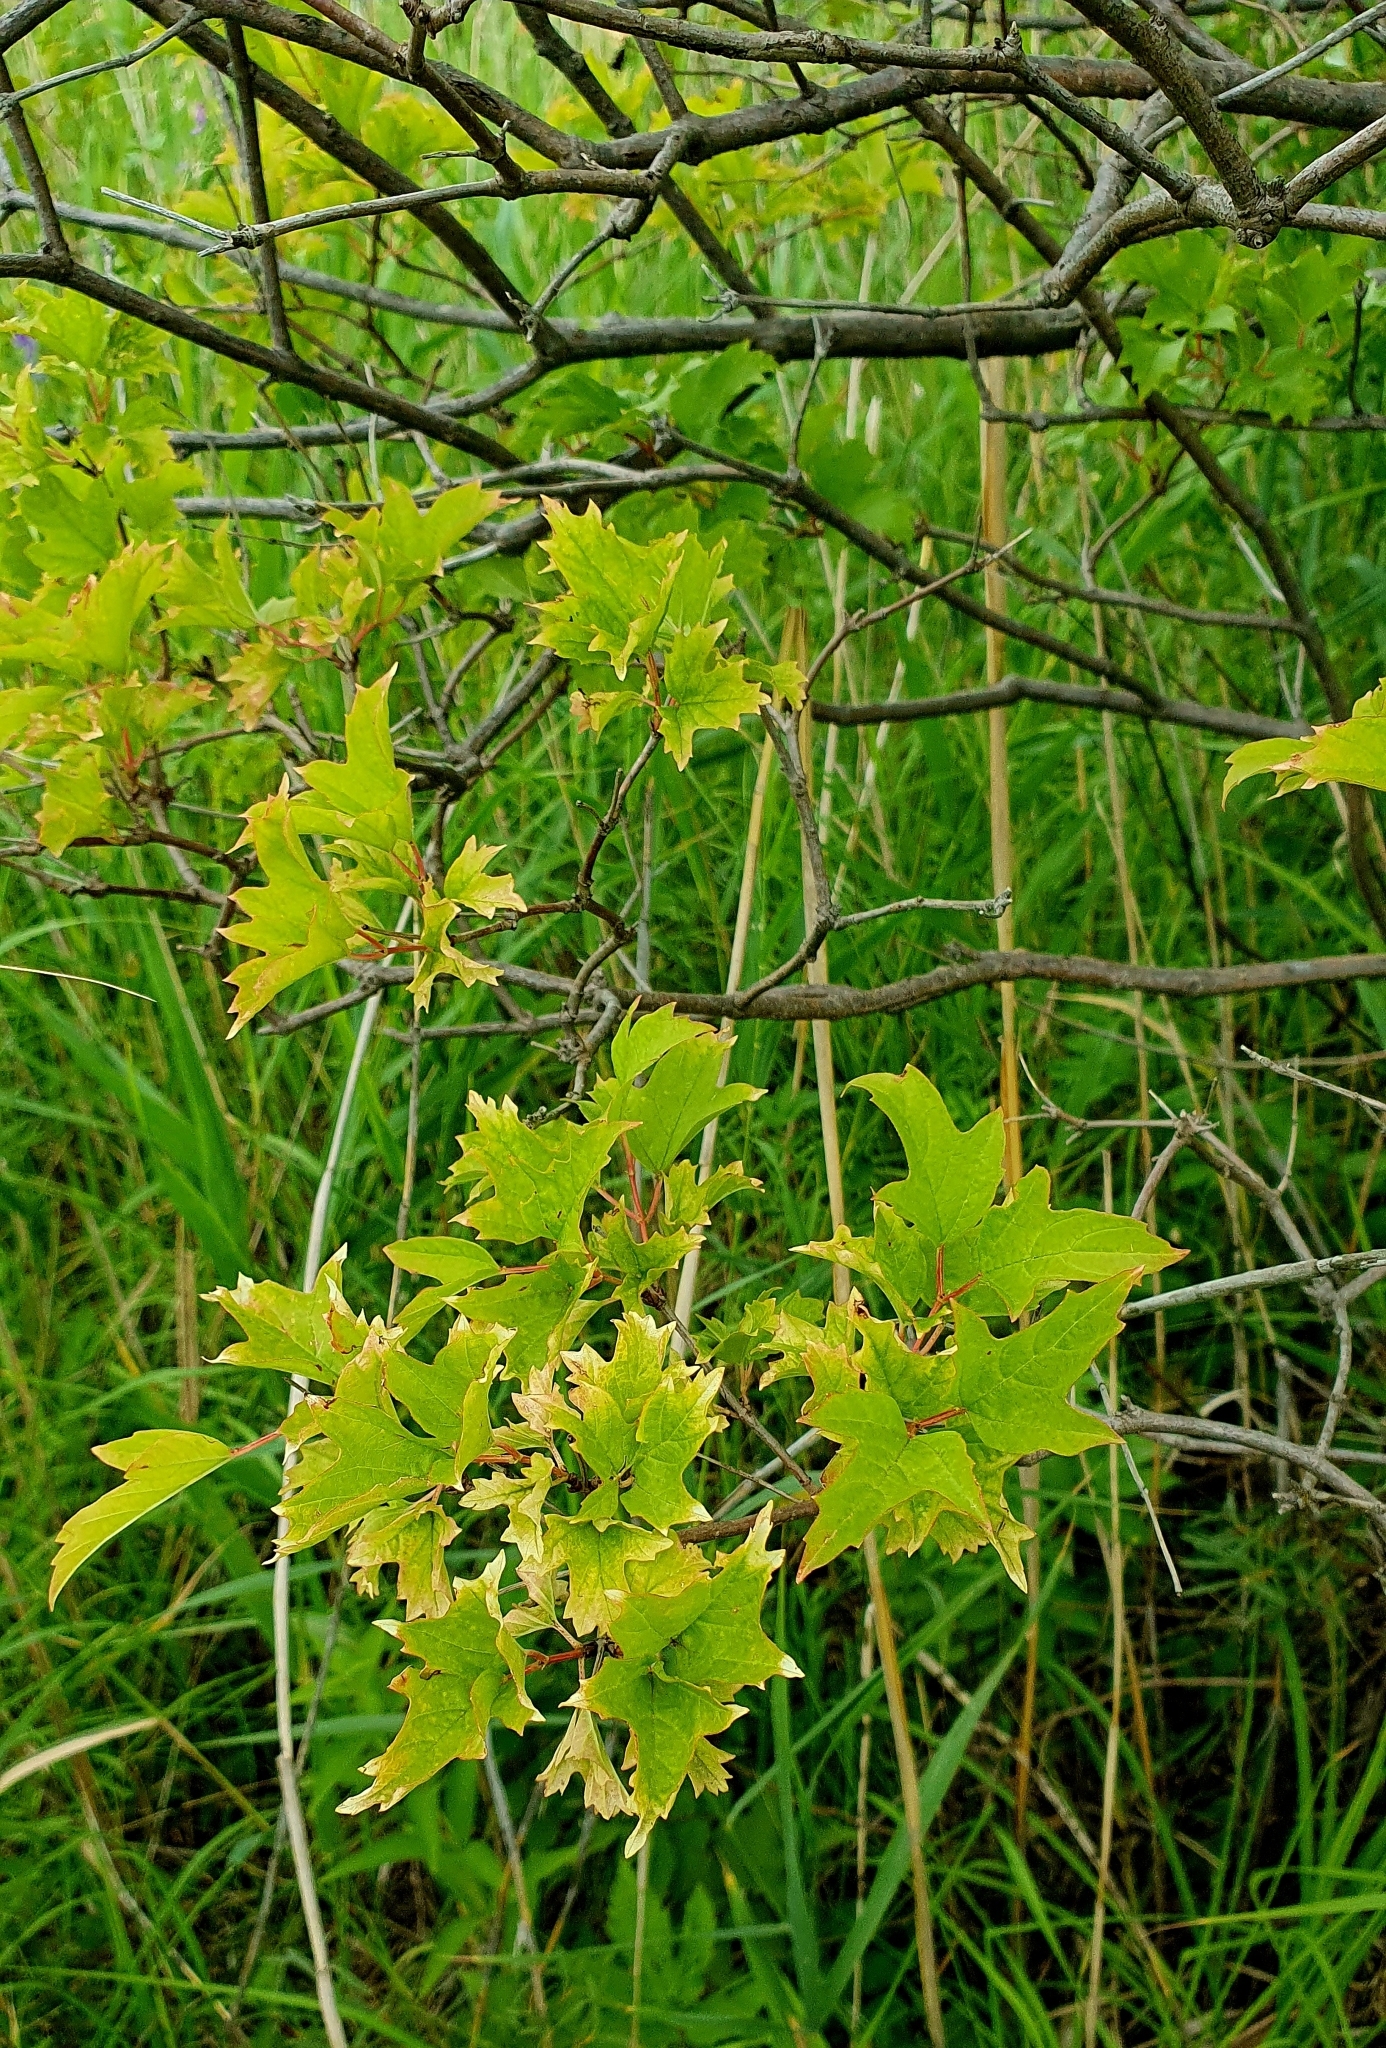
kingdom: Plantae
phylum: Tracheophyta
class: Magnoliopsida
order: Dipsacales
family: Viburnaceae
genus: Viburnum
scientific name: Viburnum opulus
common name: Guelder-rose
